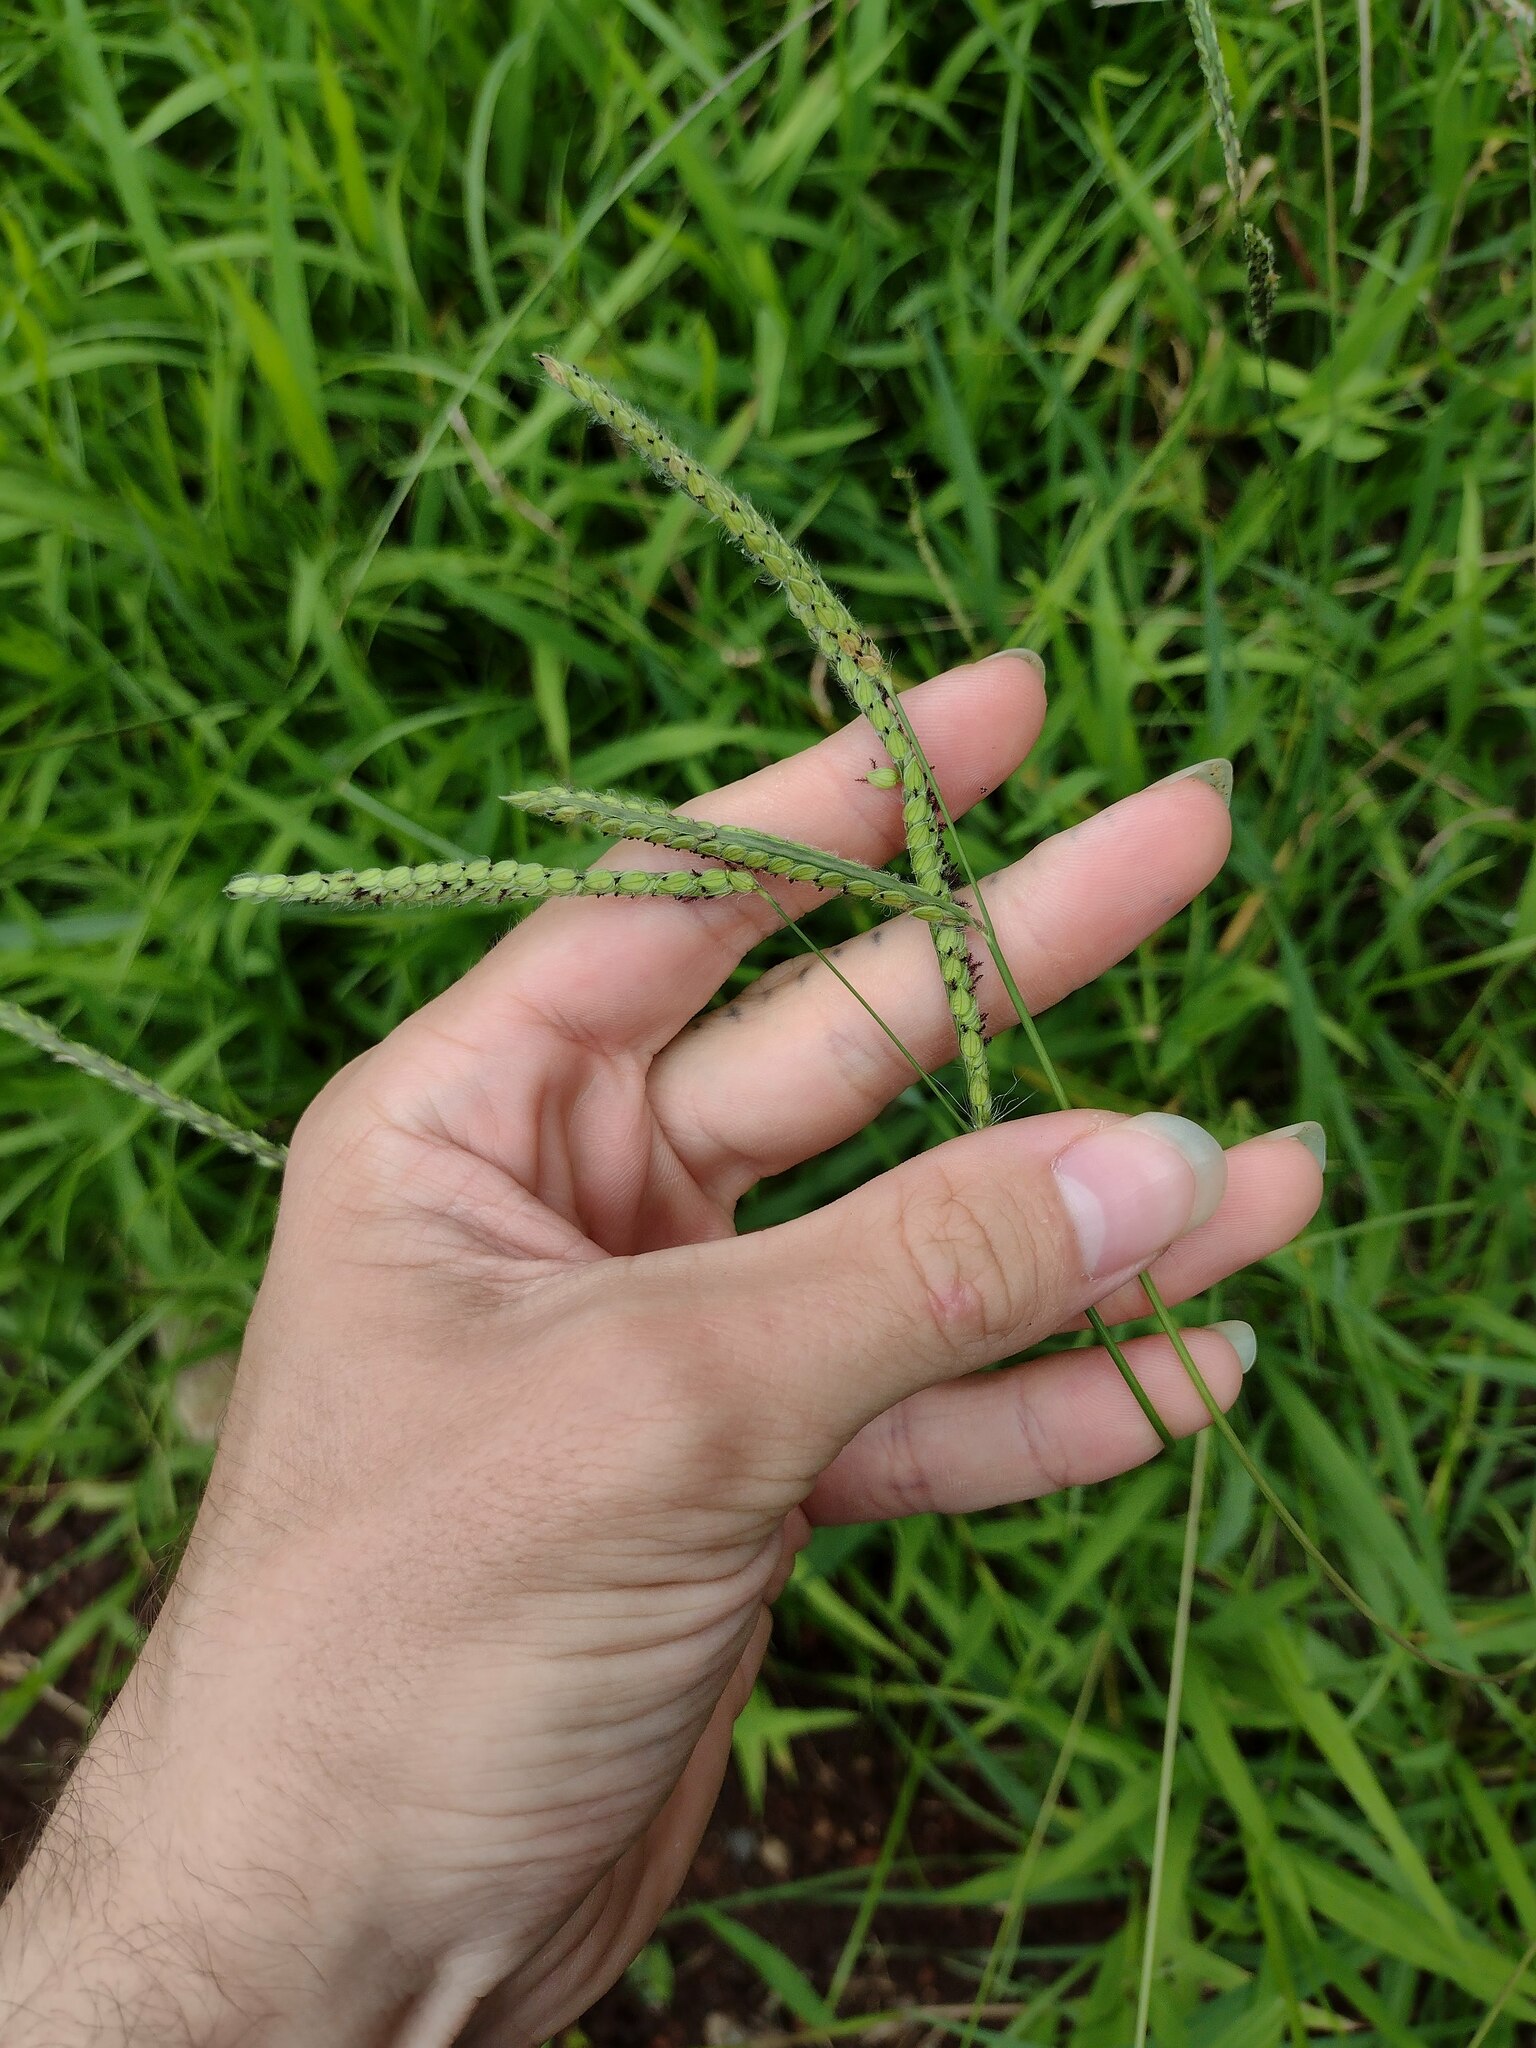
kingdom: Plantae
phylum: Tracheophyta
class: Liliopsida
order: Poales
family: Poaceae
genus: Paspalum
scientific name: Paspalum dilatatum
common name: Dallisgrass
